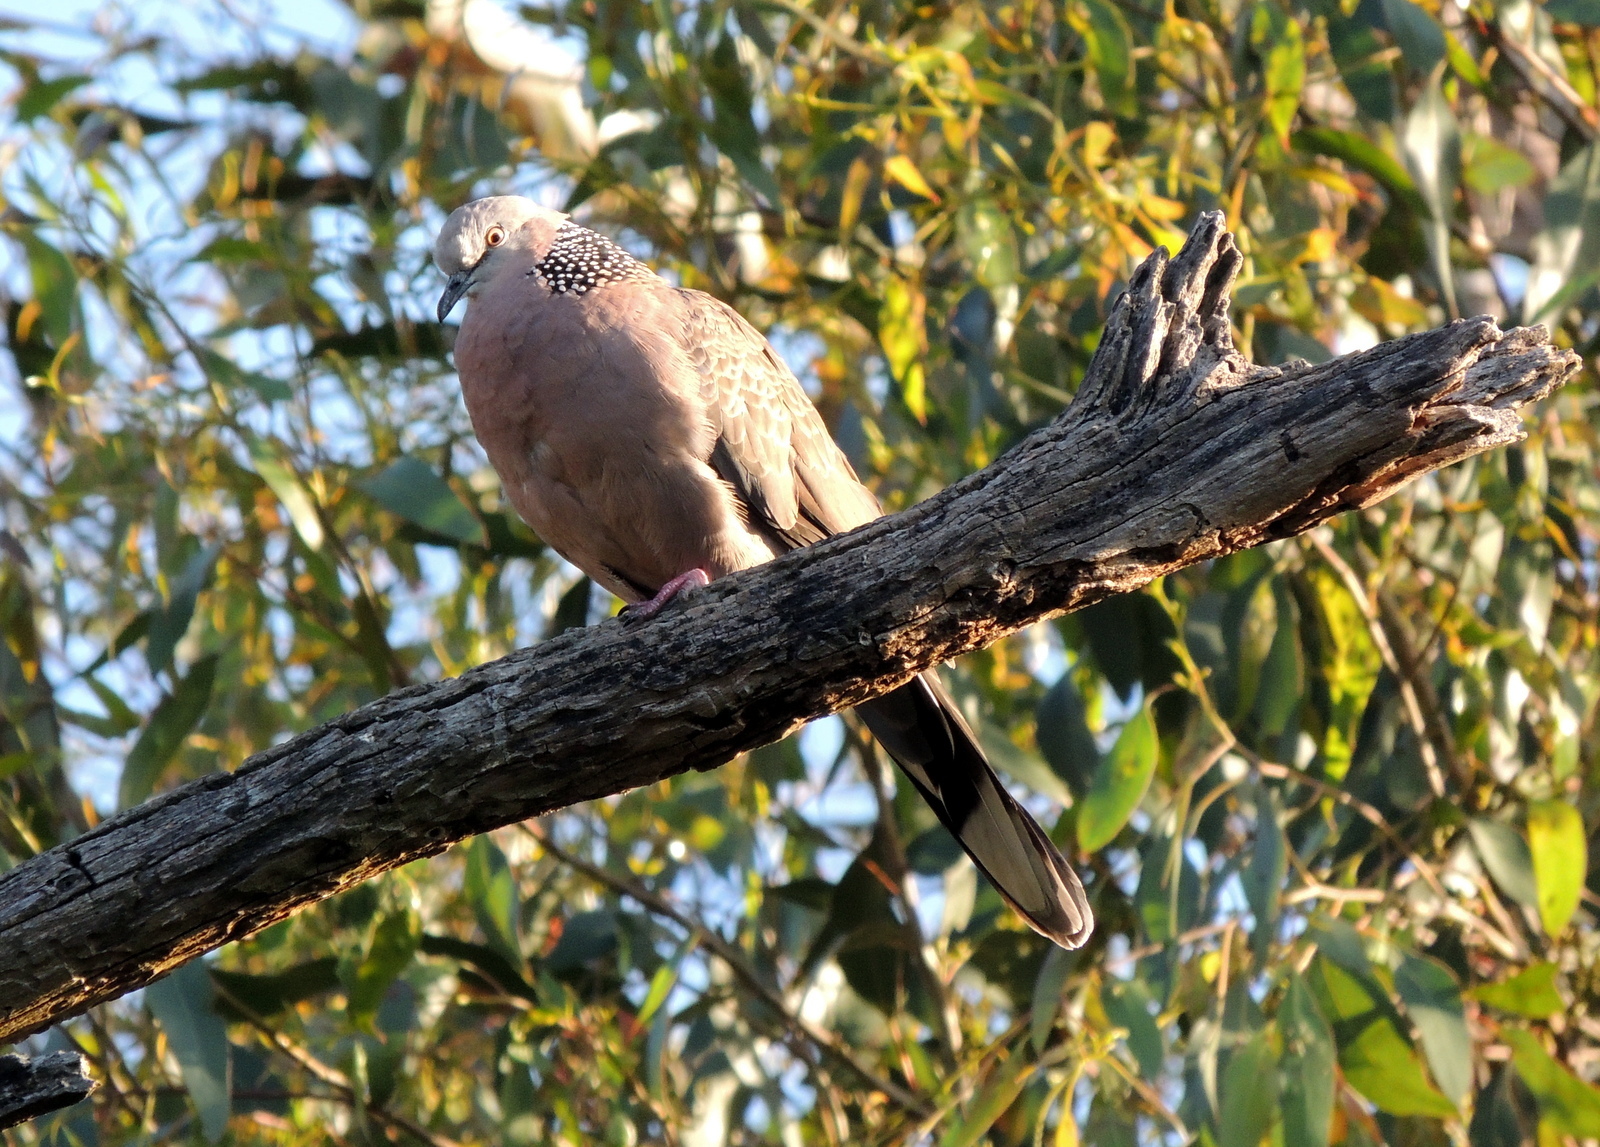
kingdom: Animalia
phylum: Chordata
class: Aves
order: Columbiformes
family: Columbidae
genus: Spilopelia
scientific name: Spilopelia chinensis
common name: Spotted dove
